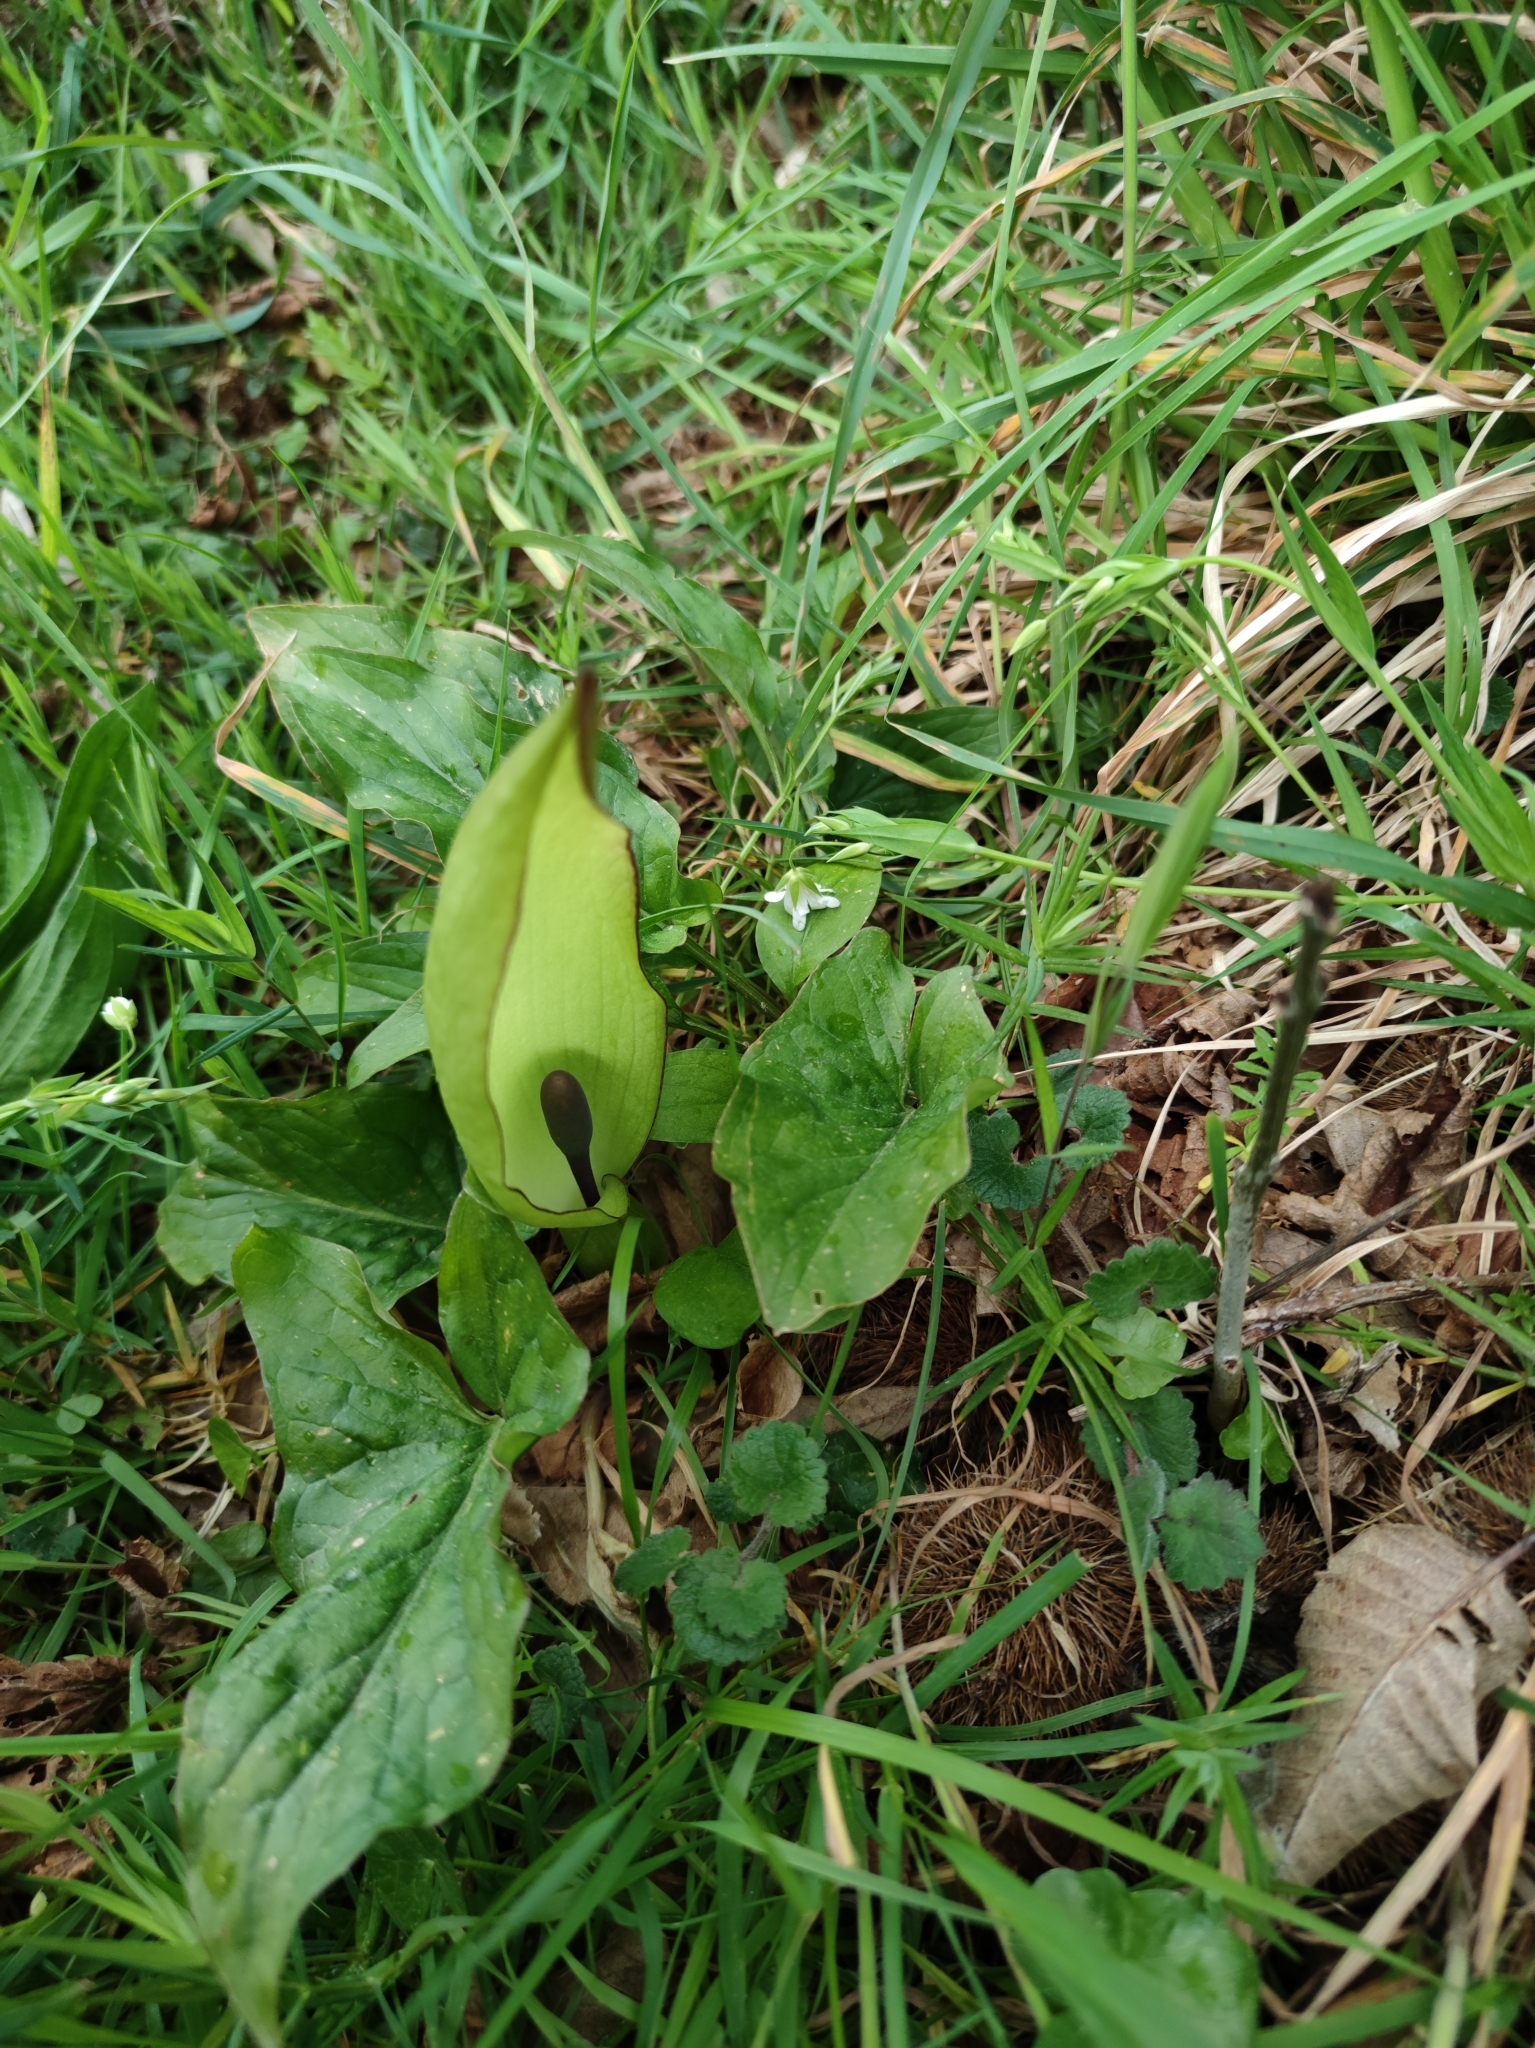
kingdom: Plantae
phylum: Tracheophyta
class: Liliopsida
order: Alismatales
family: Araceae
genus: Arum
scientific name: Arum maculatum
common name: Lords-and-ladies
